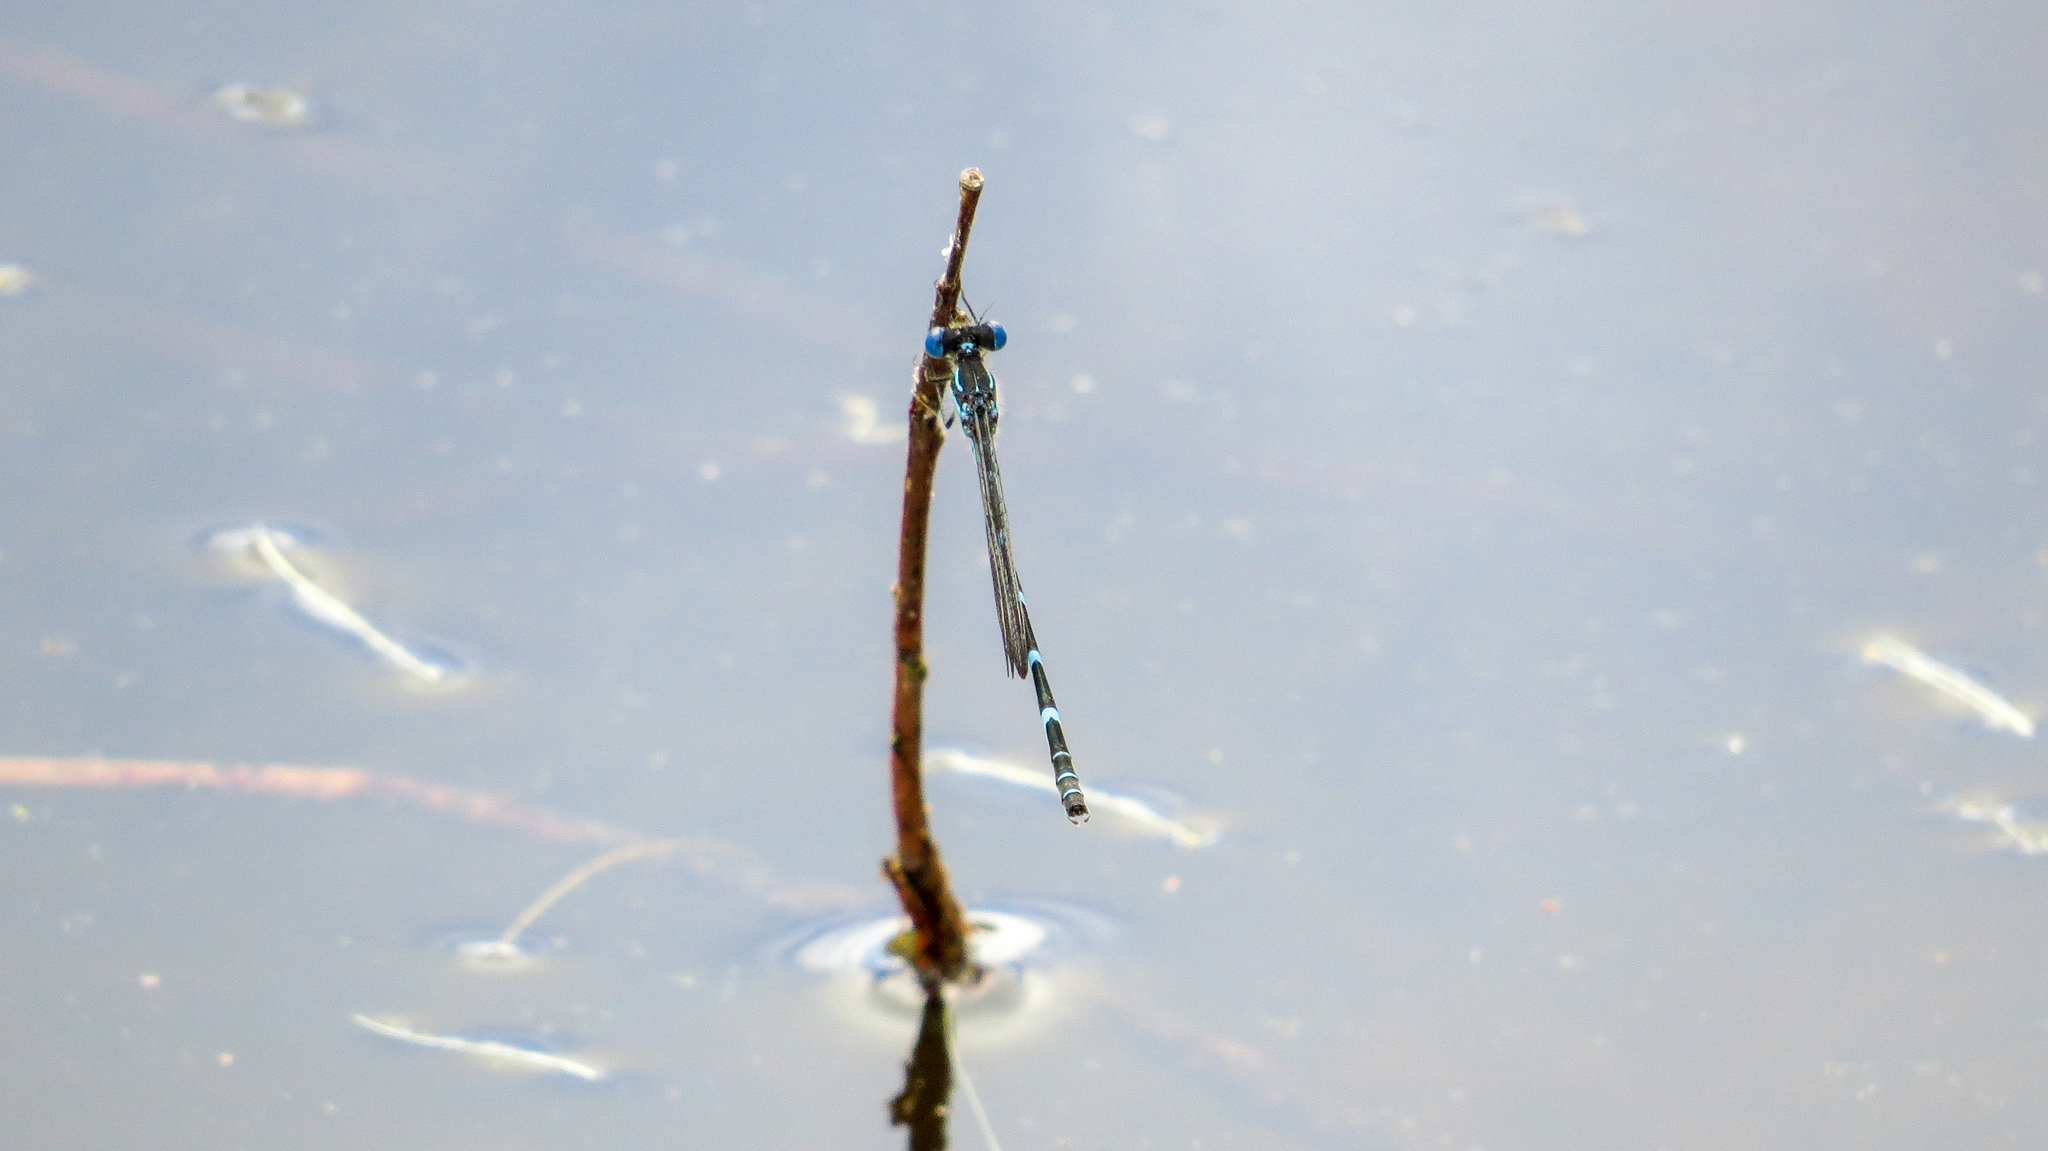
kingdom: Animalia
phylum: Arthropoda
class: Insecta
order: Odonata
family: Lestidae
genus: Austrolestes
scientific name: Austrolestes minjerriba
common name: Dune ringtail
